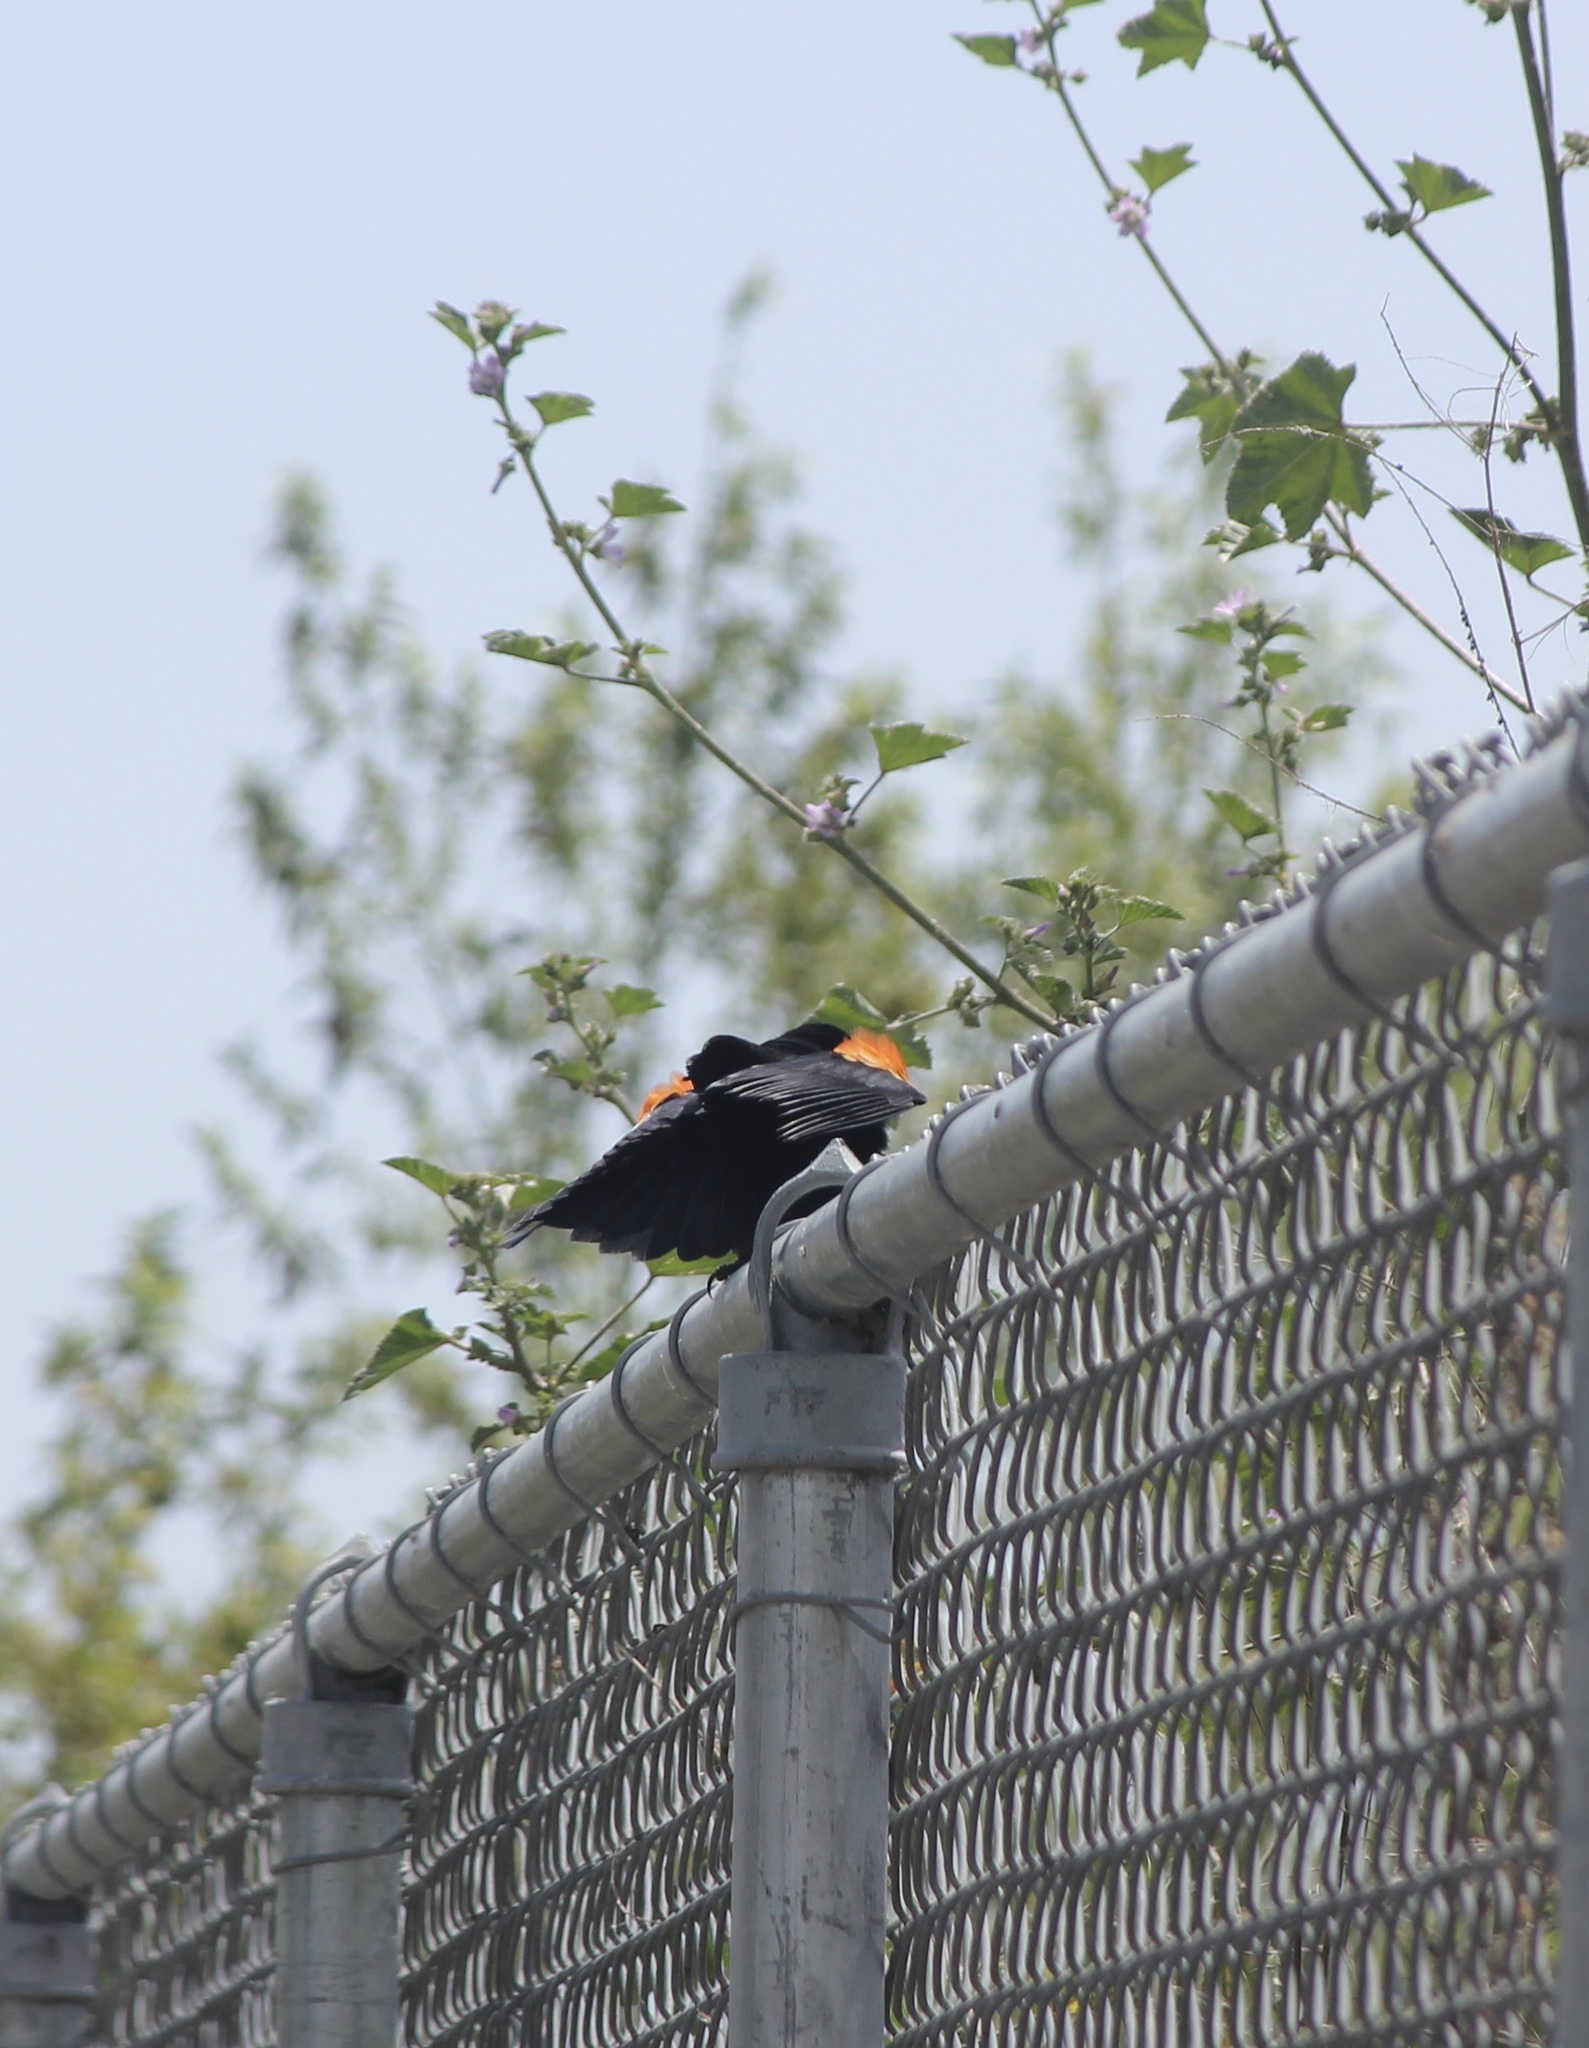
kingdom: Animalia
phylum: Chordata
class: Aves
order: Passeriformes
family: Icteridae
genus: Agelaius
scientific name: Agelaius phoeniceus
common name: Red-winged blackbird
